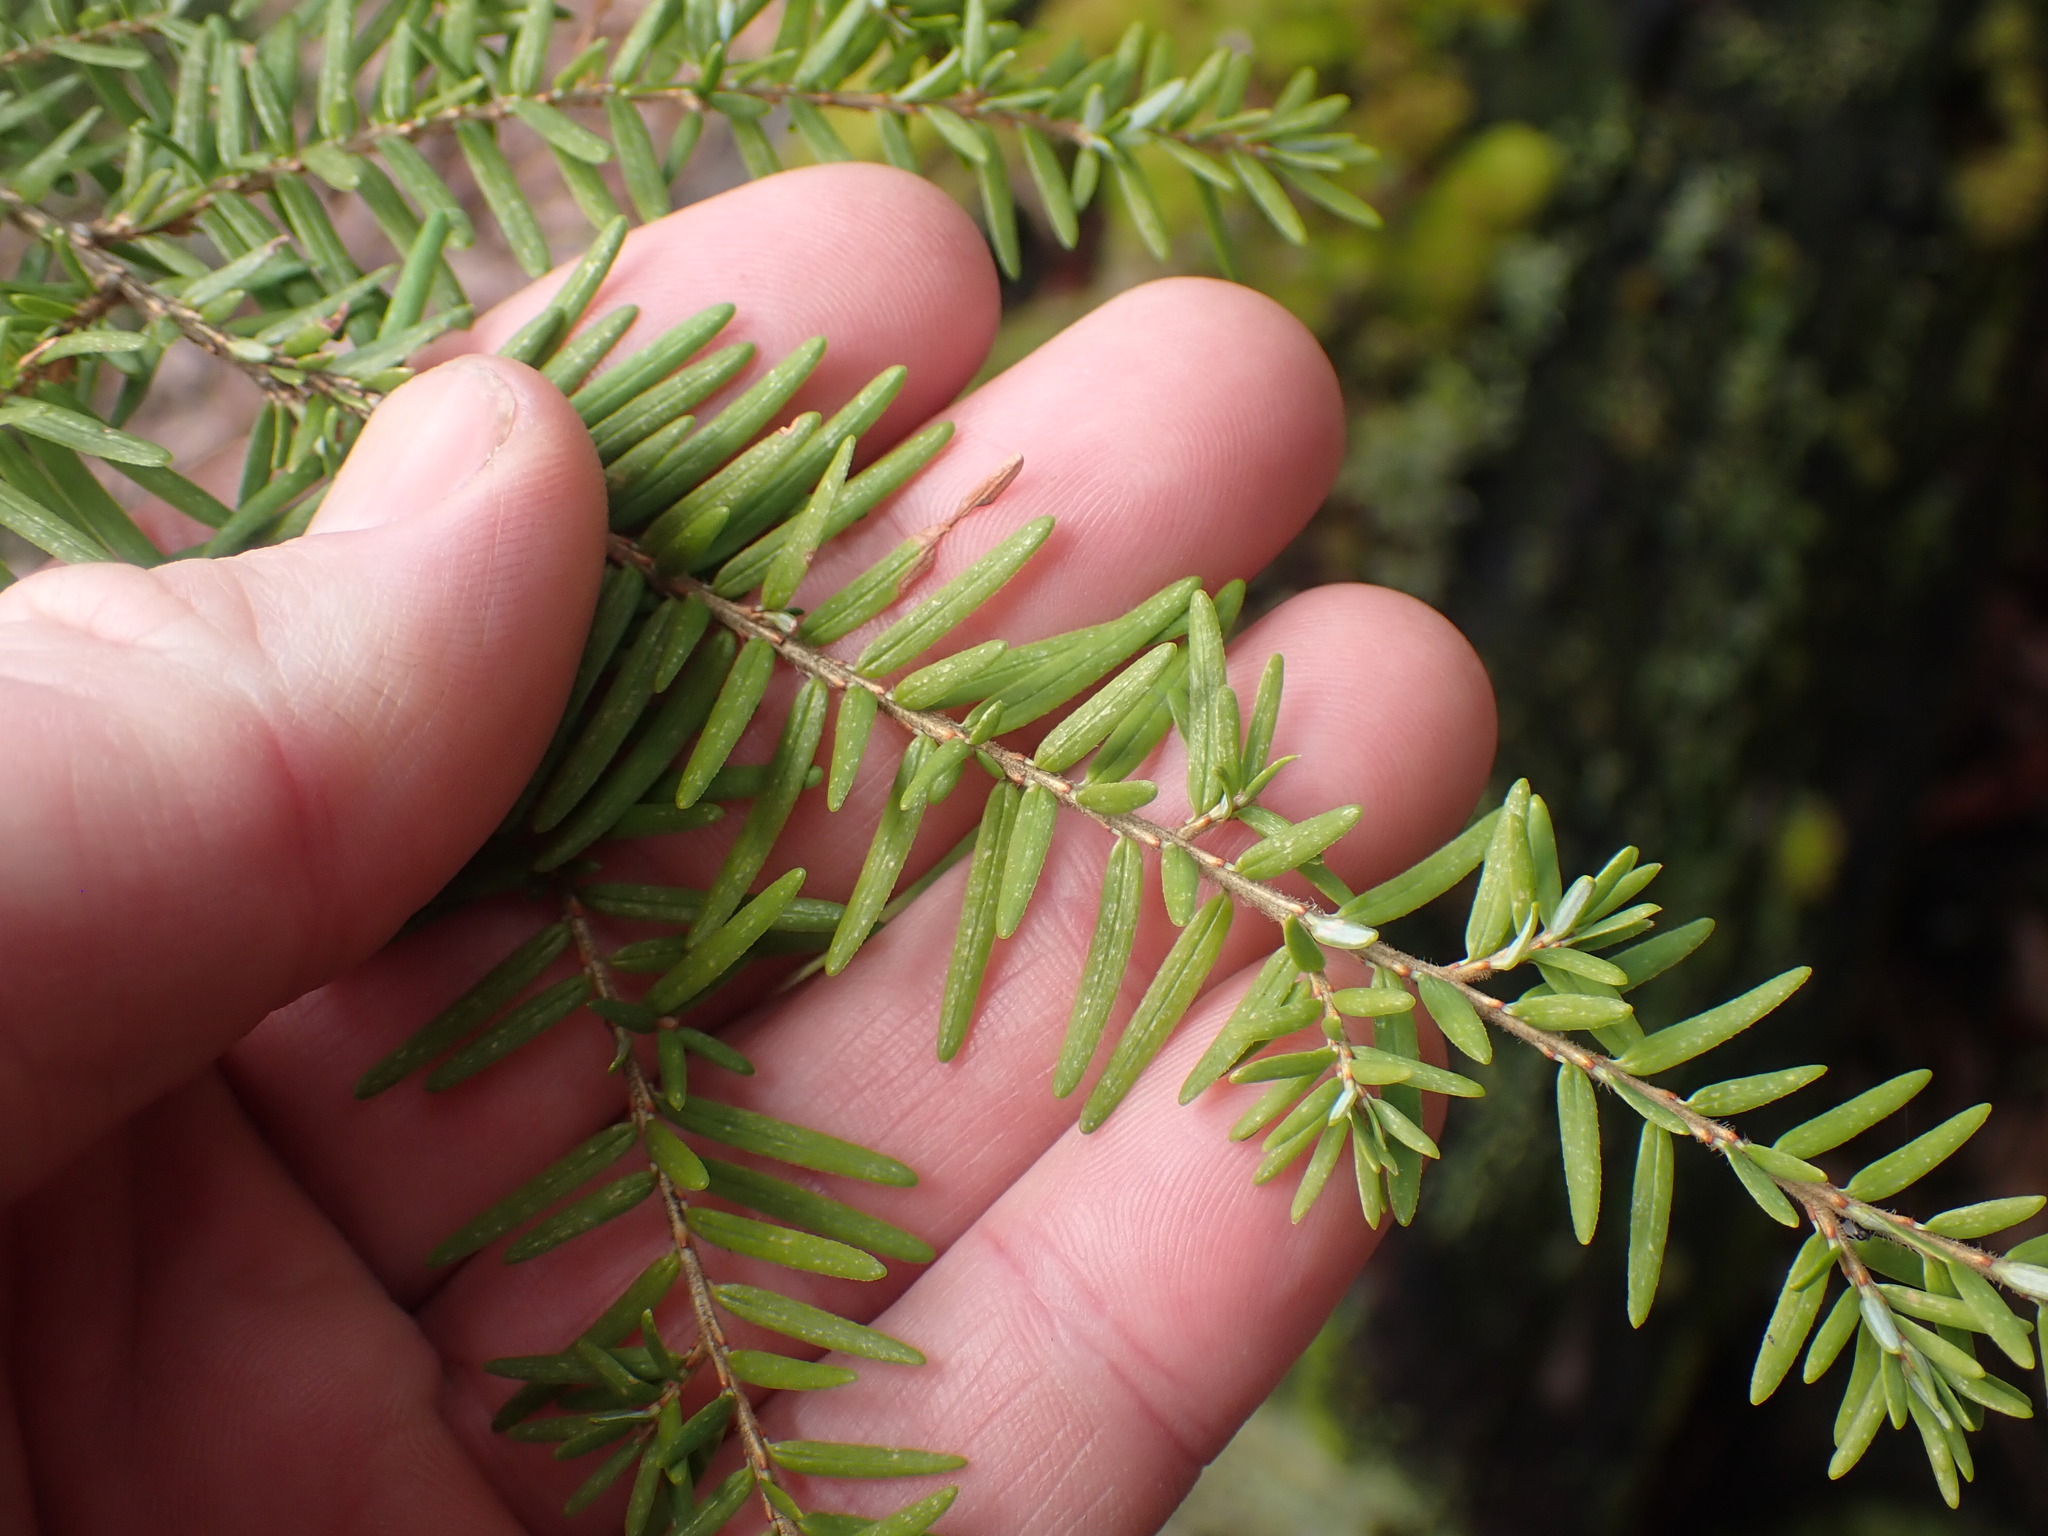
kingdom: Plantae
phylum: Tracheophyta
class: Pinopsida
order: Pinales
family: Pinaceae
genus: Tsuga
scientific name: Tsuga heterophylla
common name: Western hemlock
